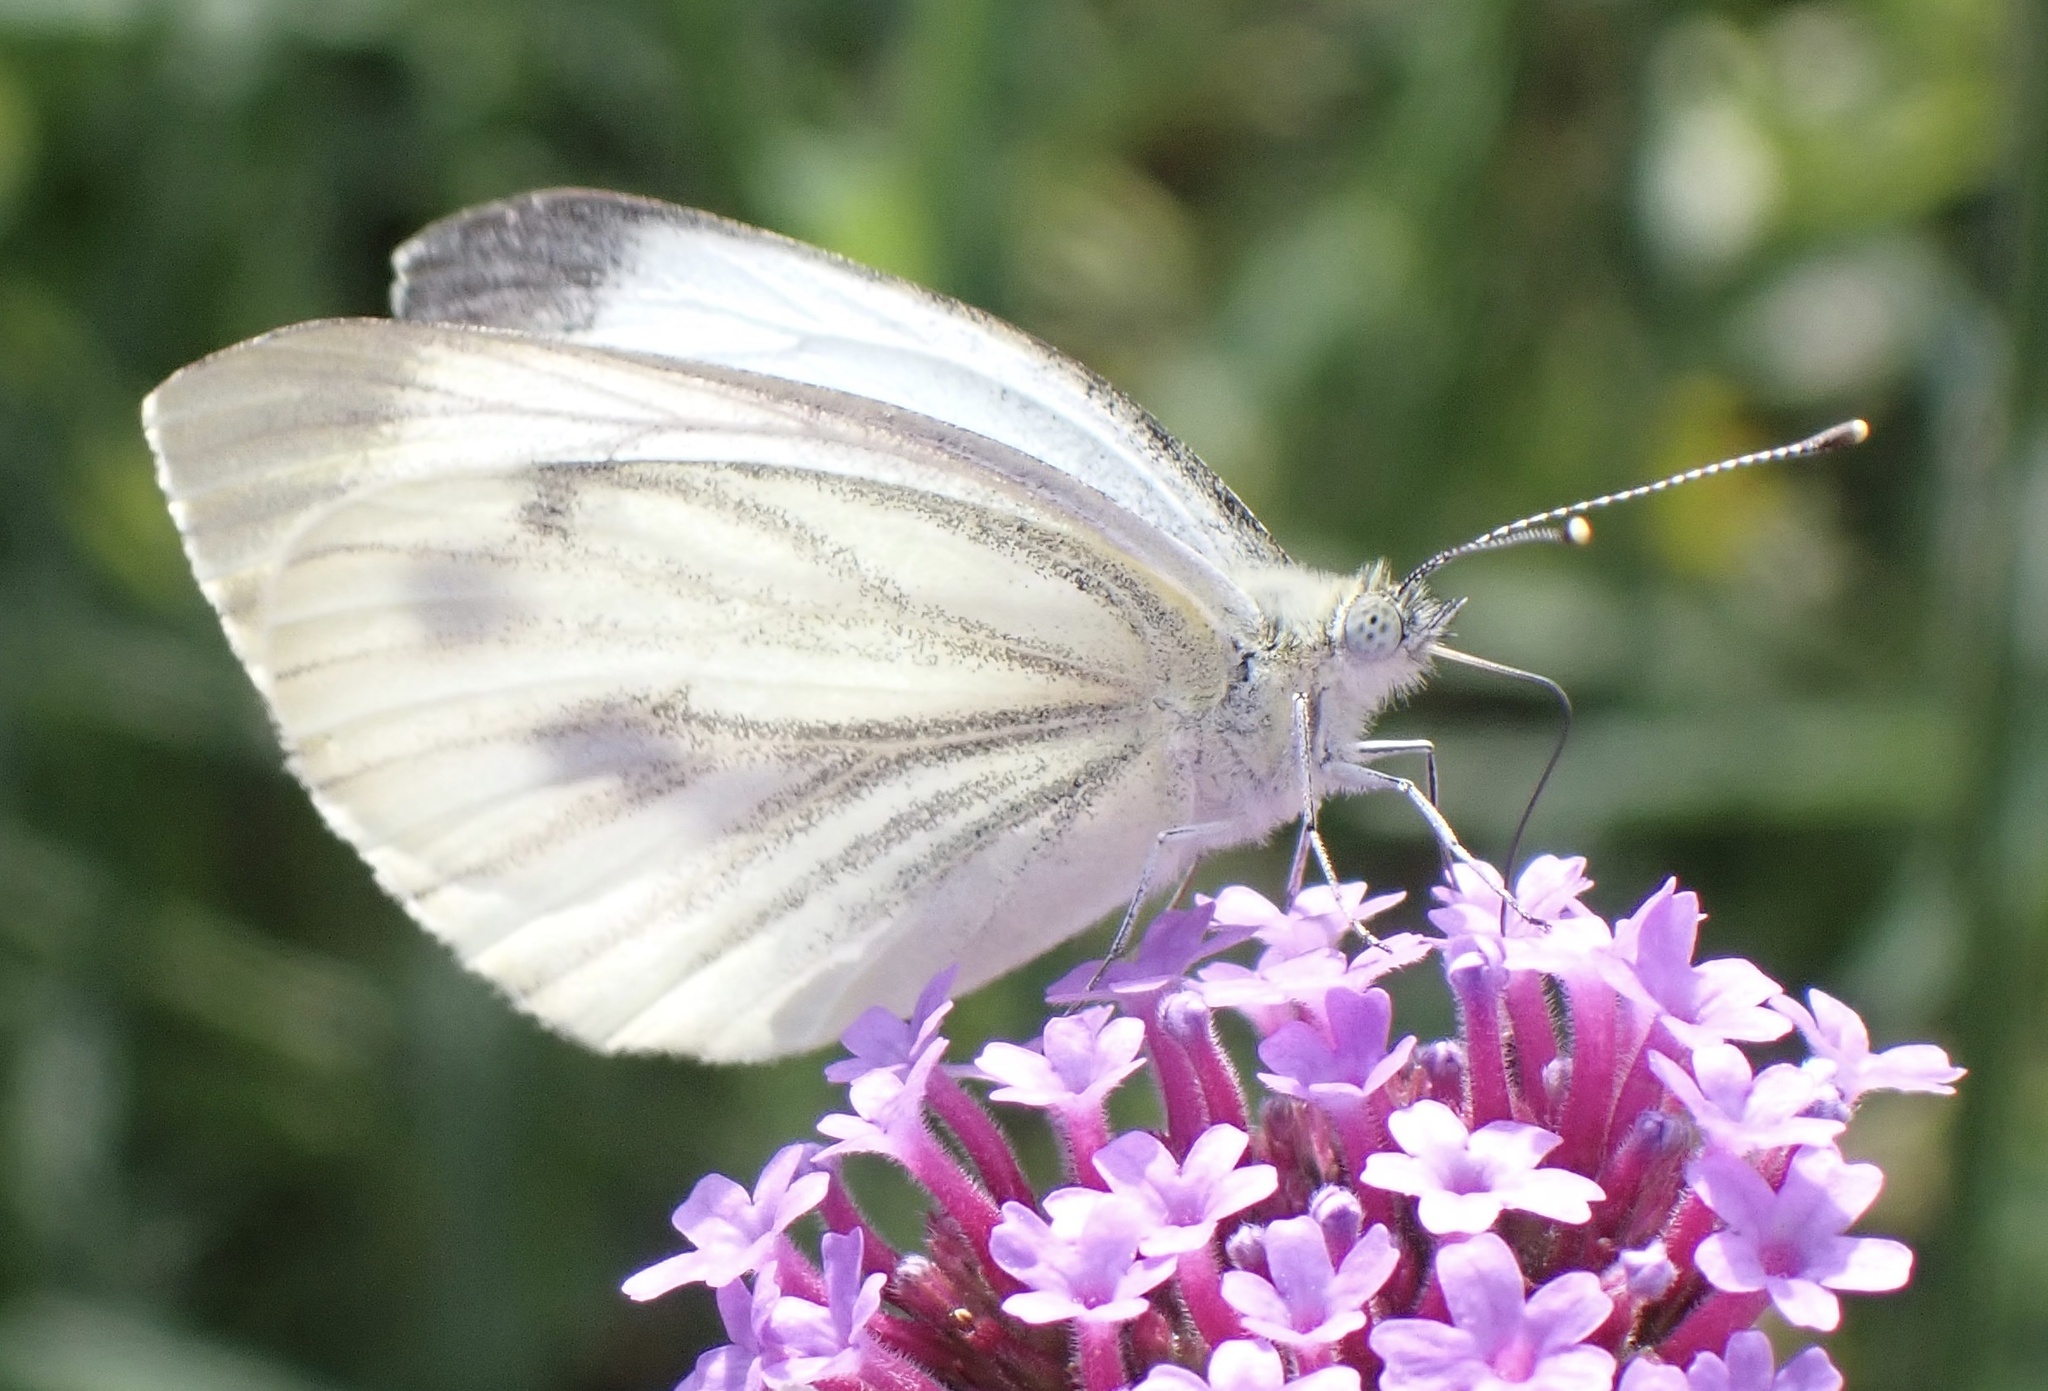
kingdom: Animalia
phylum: Arthropoda
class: Insecta
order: Lepidoptera
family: Pieridae
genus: Pieris
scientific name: Pieris napi
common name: Green-veined white
